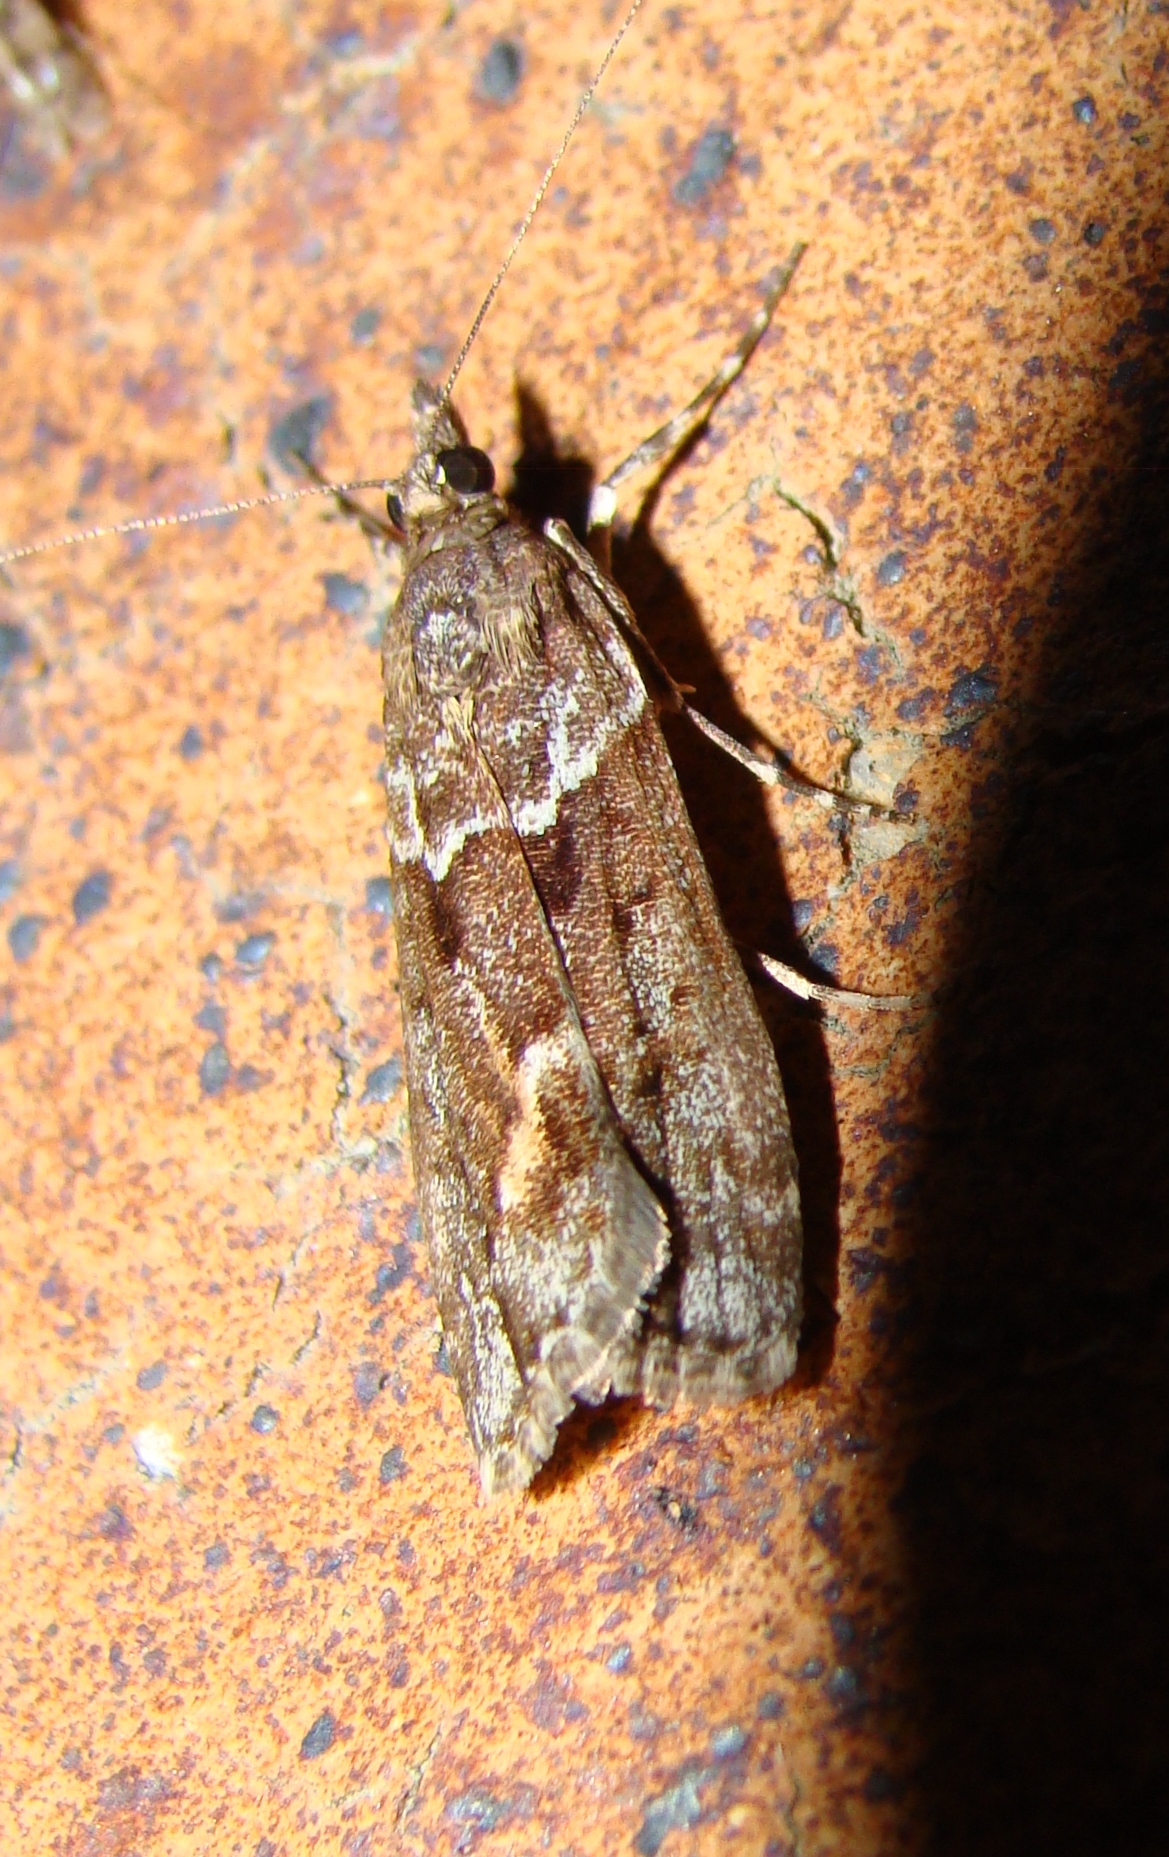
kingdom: Animalia
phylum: Arthropoda
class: Insecta
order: Lepidoptera
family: Crambidae
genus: Eudonia
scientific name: Eudonia submarginalis
